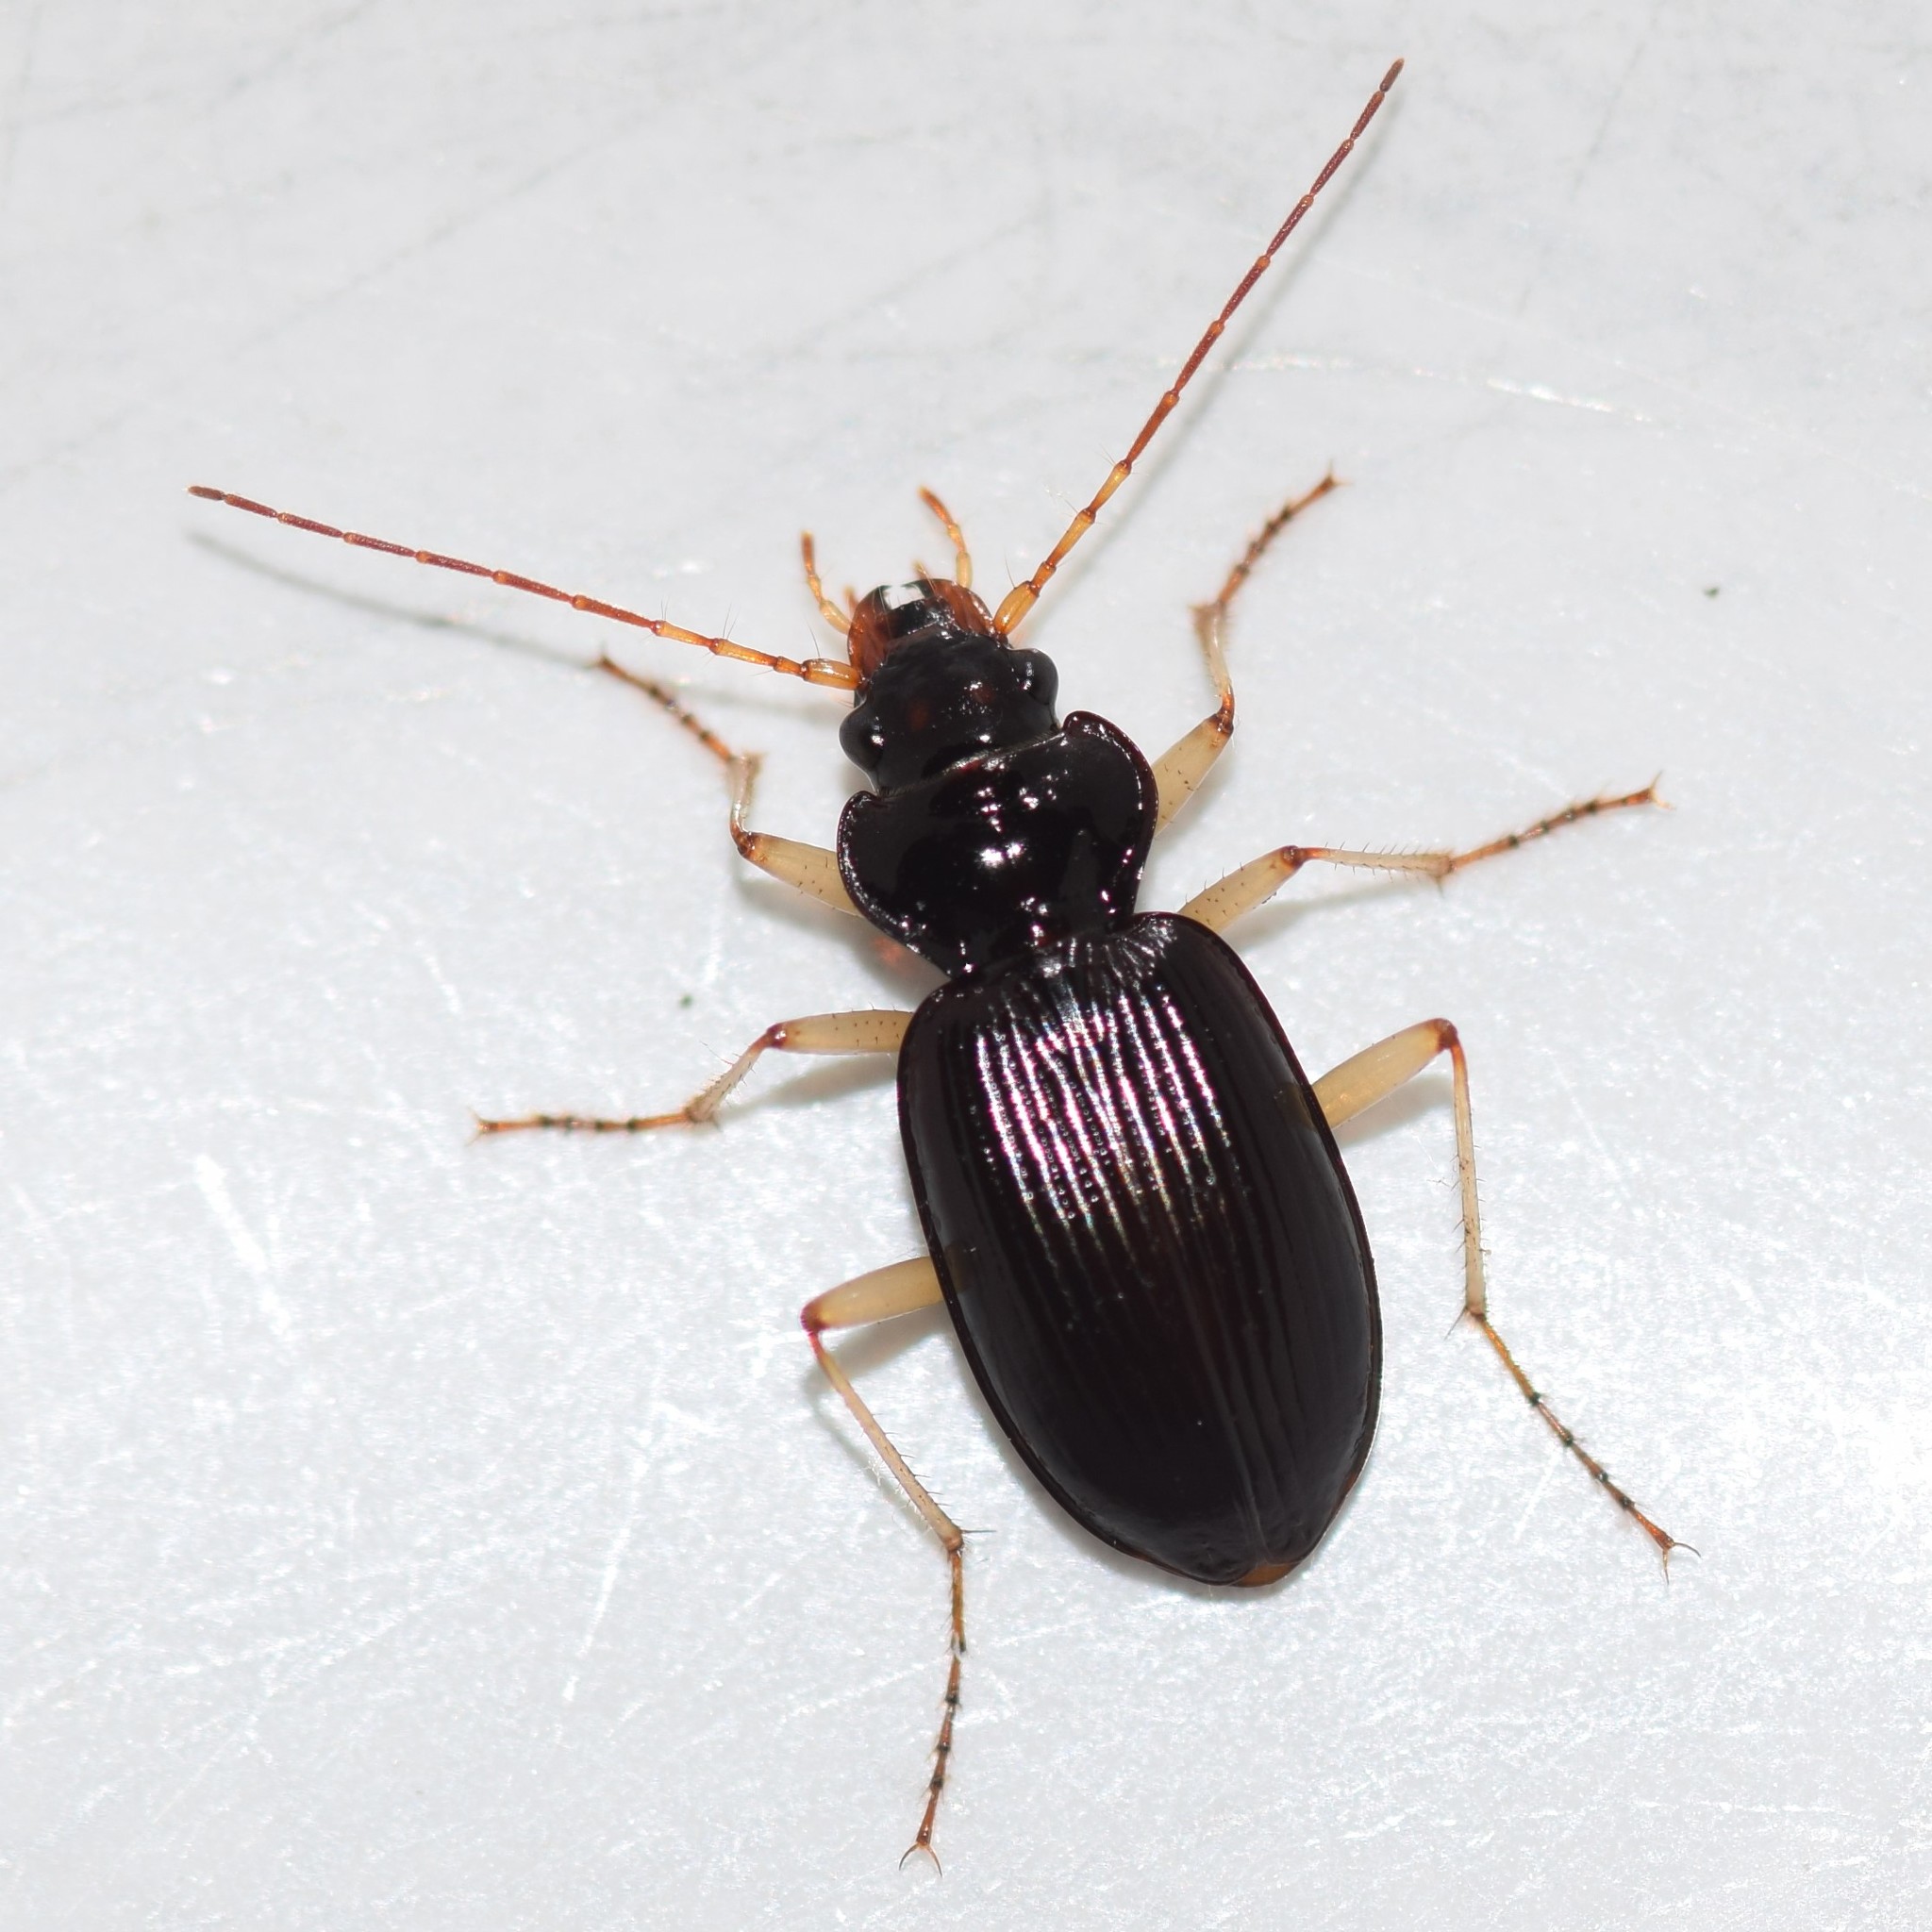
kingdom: Animalia
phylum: Arthropoda
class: Insecta
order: Coleoptera
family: Carabidae
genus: Nebria
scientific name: Nebria pallipes
